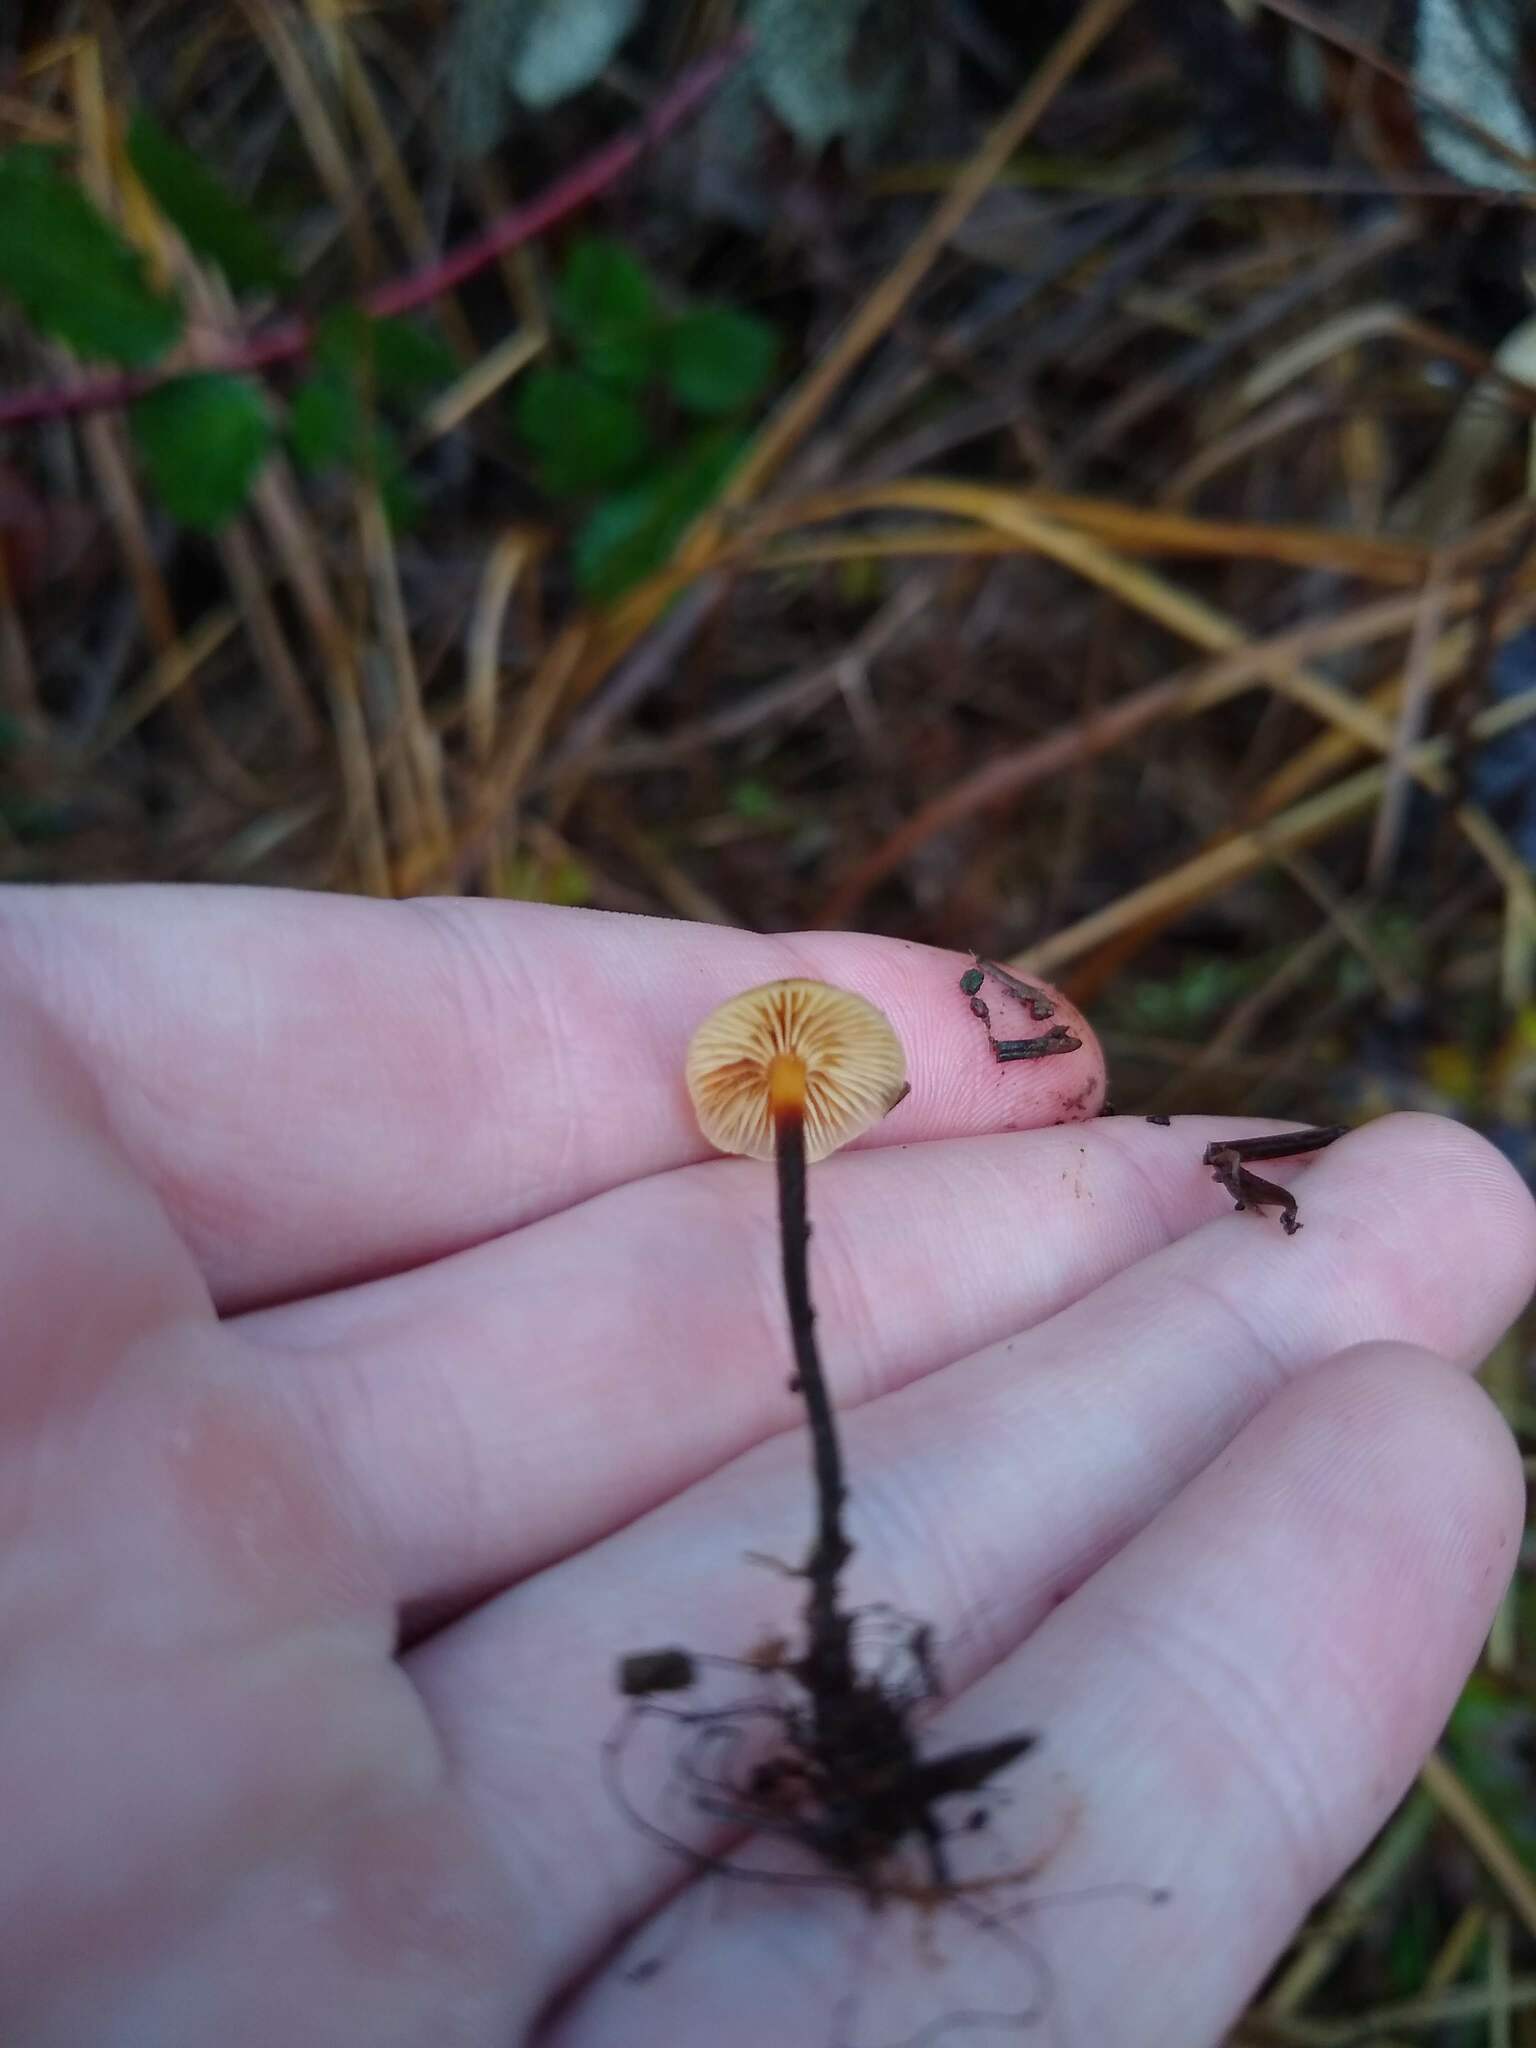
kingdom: Fungi
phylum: Basidiomycota
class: Agaricomycetes
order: Agaricales
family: Mycenaceae
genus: Xeromphalina
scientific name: Xeromphalina cauticinalis
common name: Pinelitter gingertail
